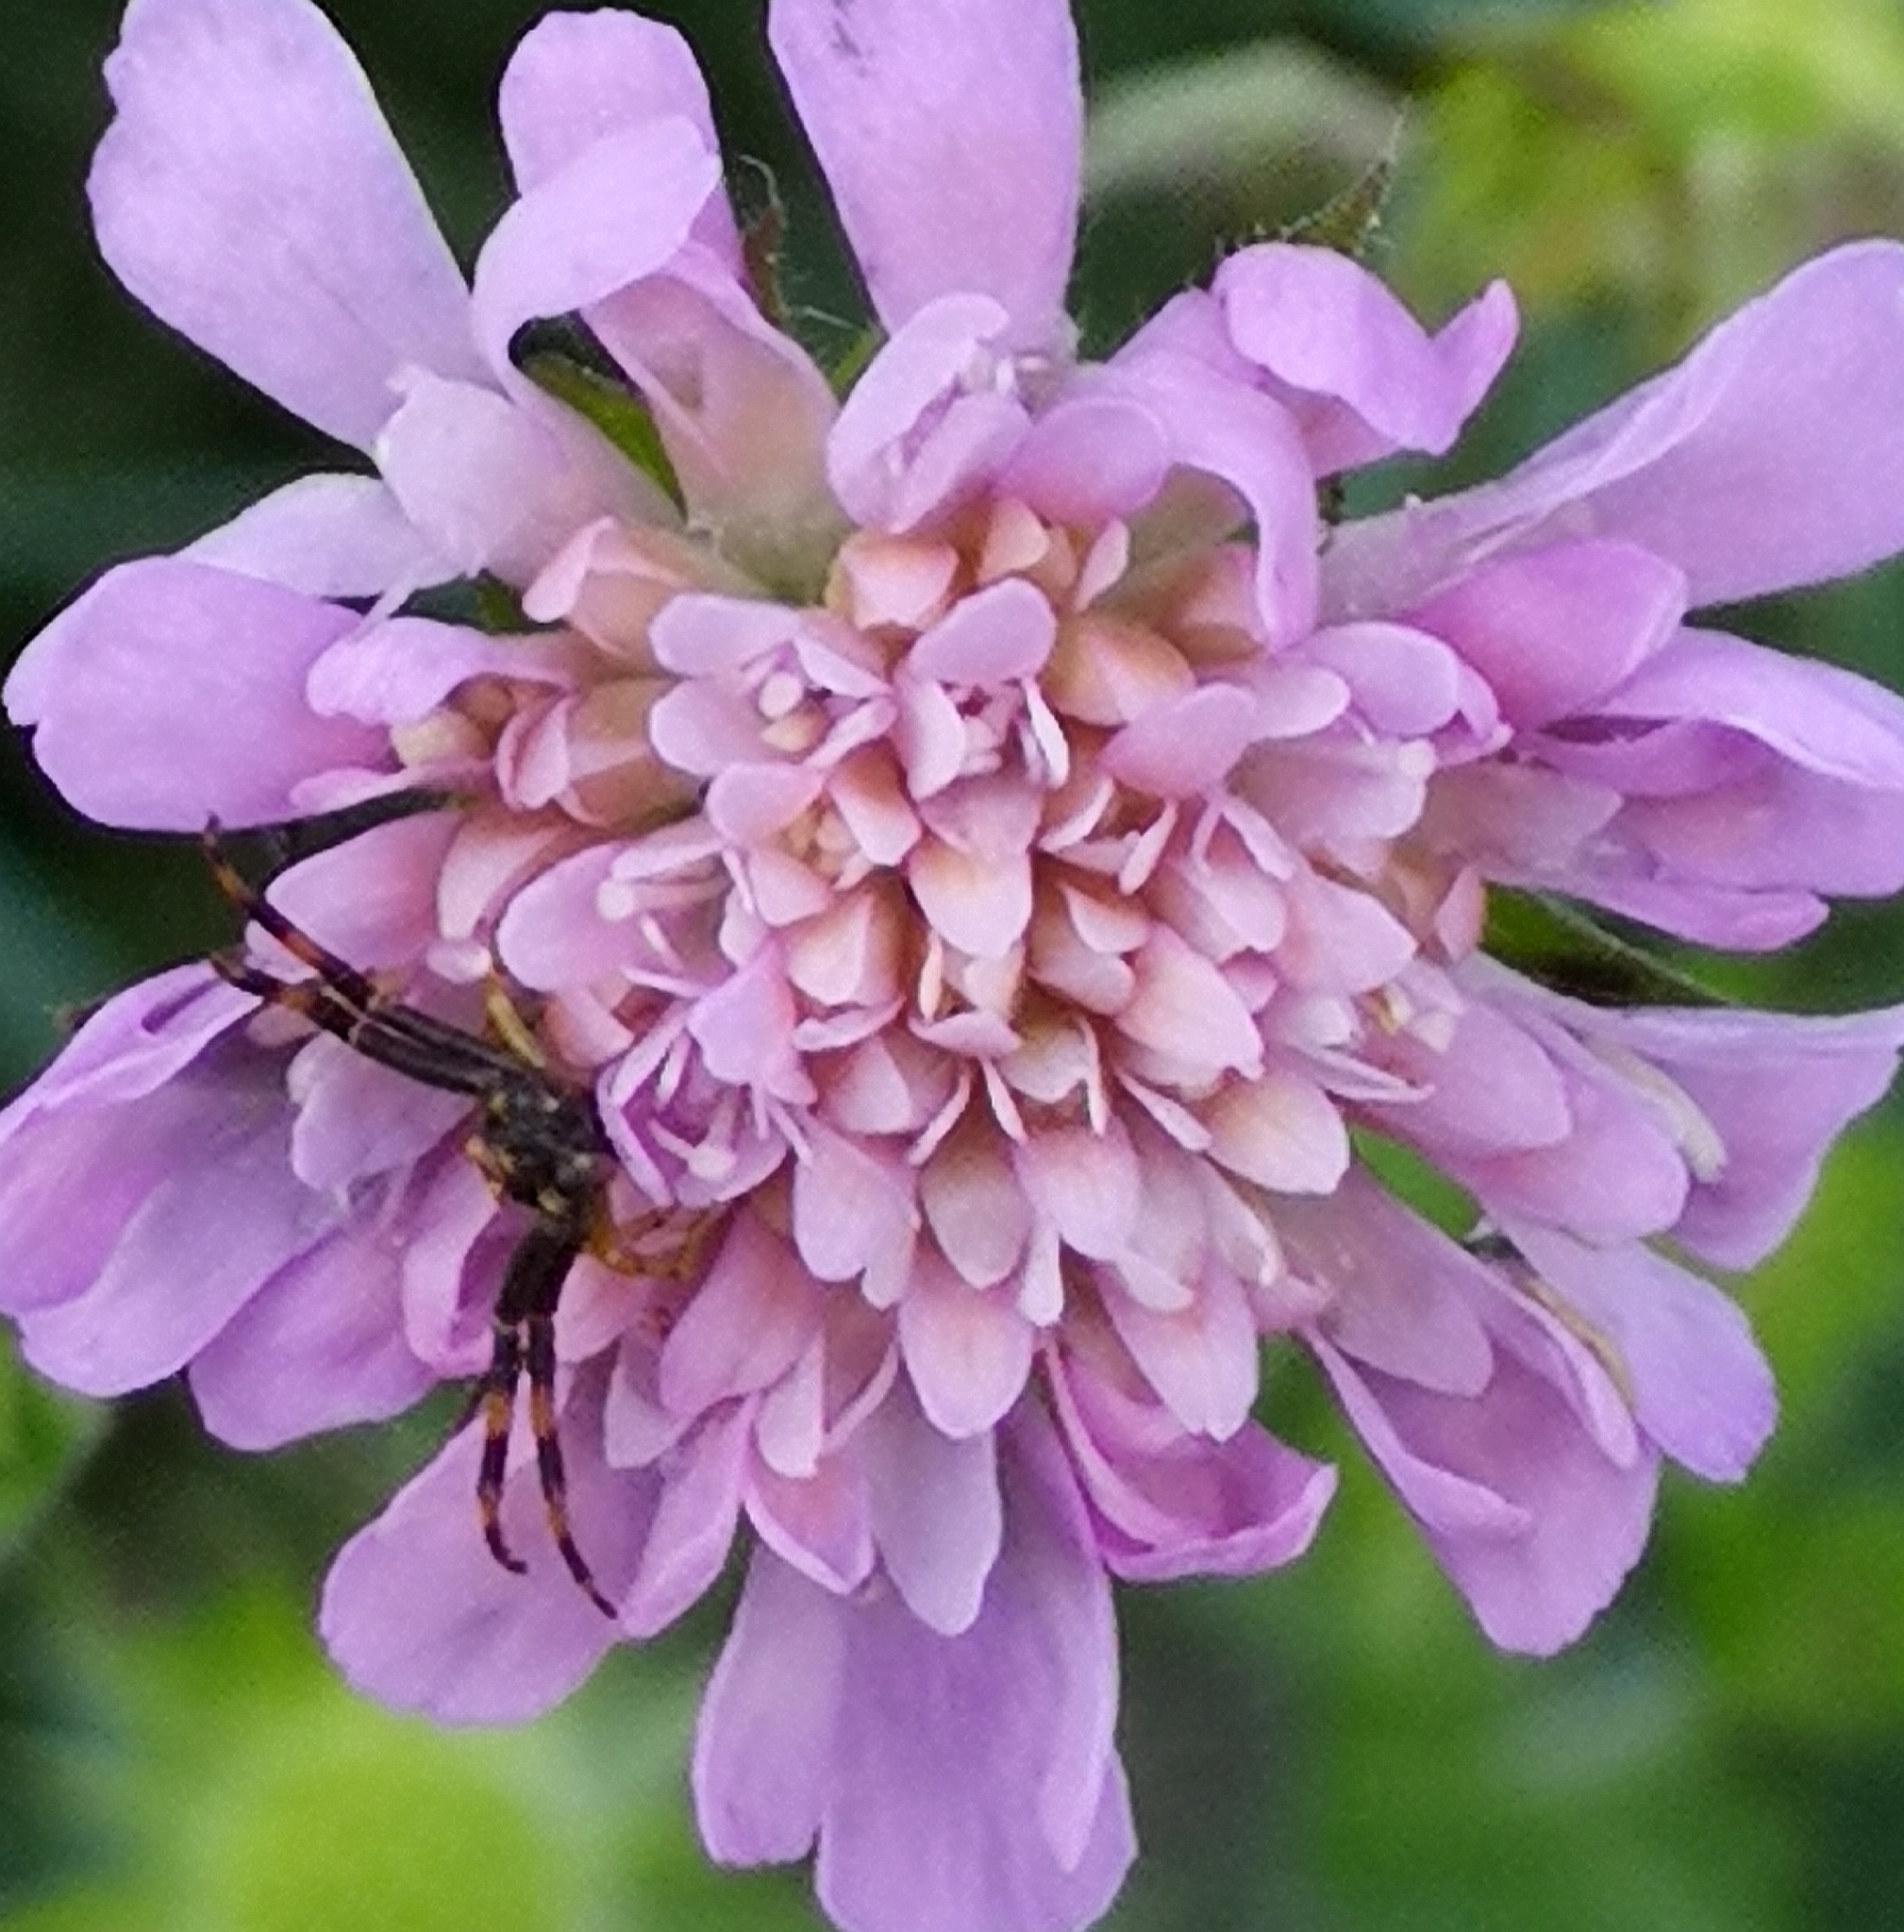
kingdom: Animalia
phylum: Arthropoda
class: Arachnida
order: Araneae
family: Thomisidae
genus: Misumena
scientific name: Misumena vatia
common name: Goldenrod crab spider
